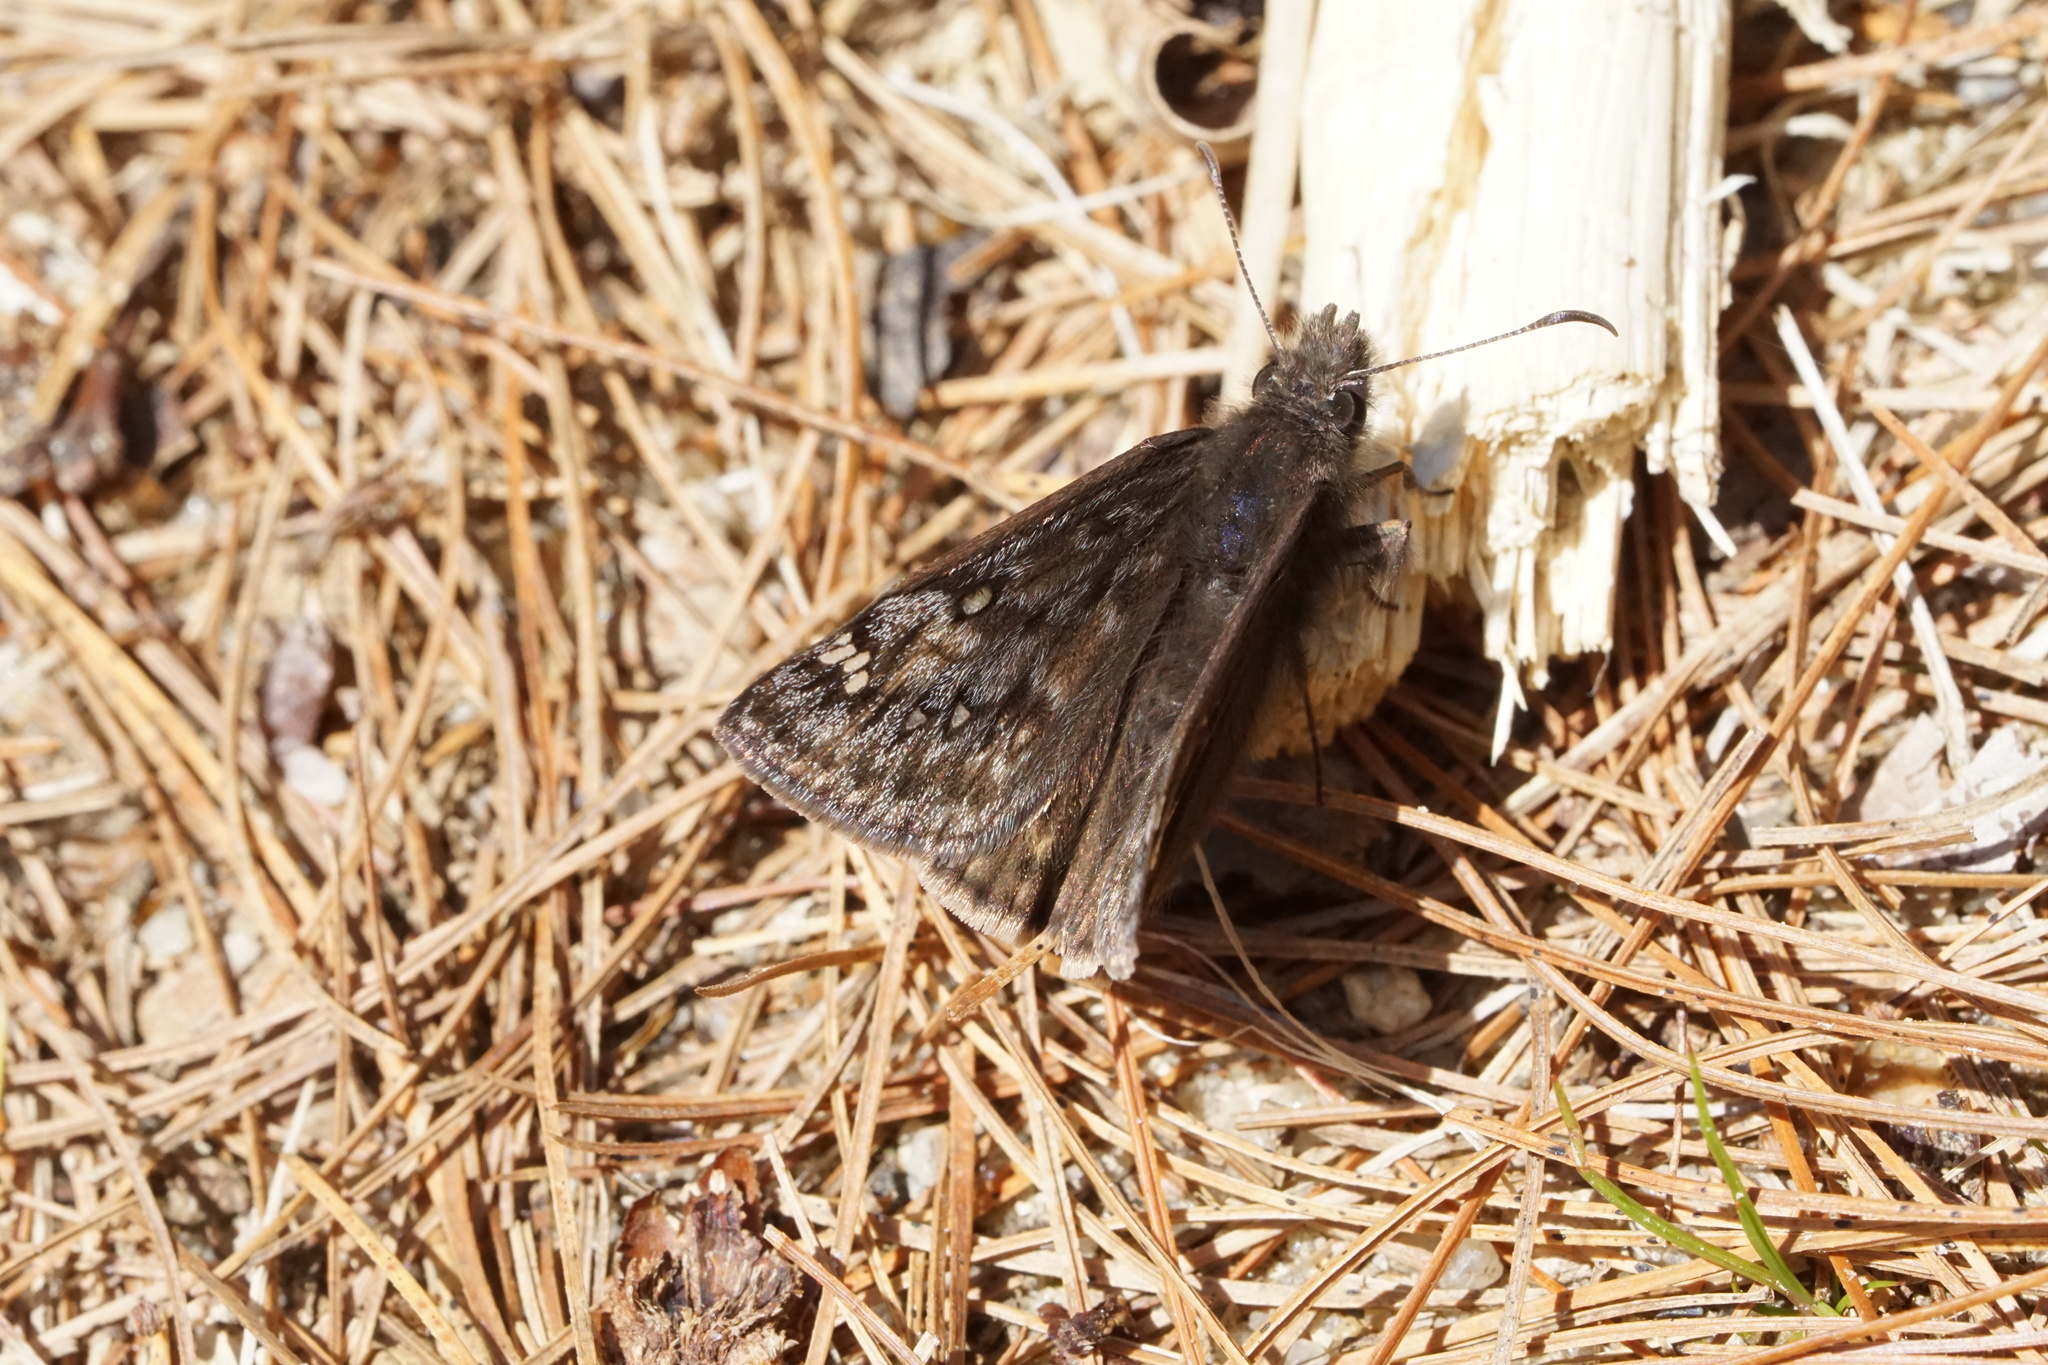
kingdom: Animalia
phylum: Arthropoda
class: Insecta
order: Lepidoptera
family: Hesperiidae
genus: Erynnis
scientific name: Erynnis juvenalis
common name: Juvenal's duskywing
